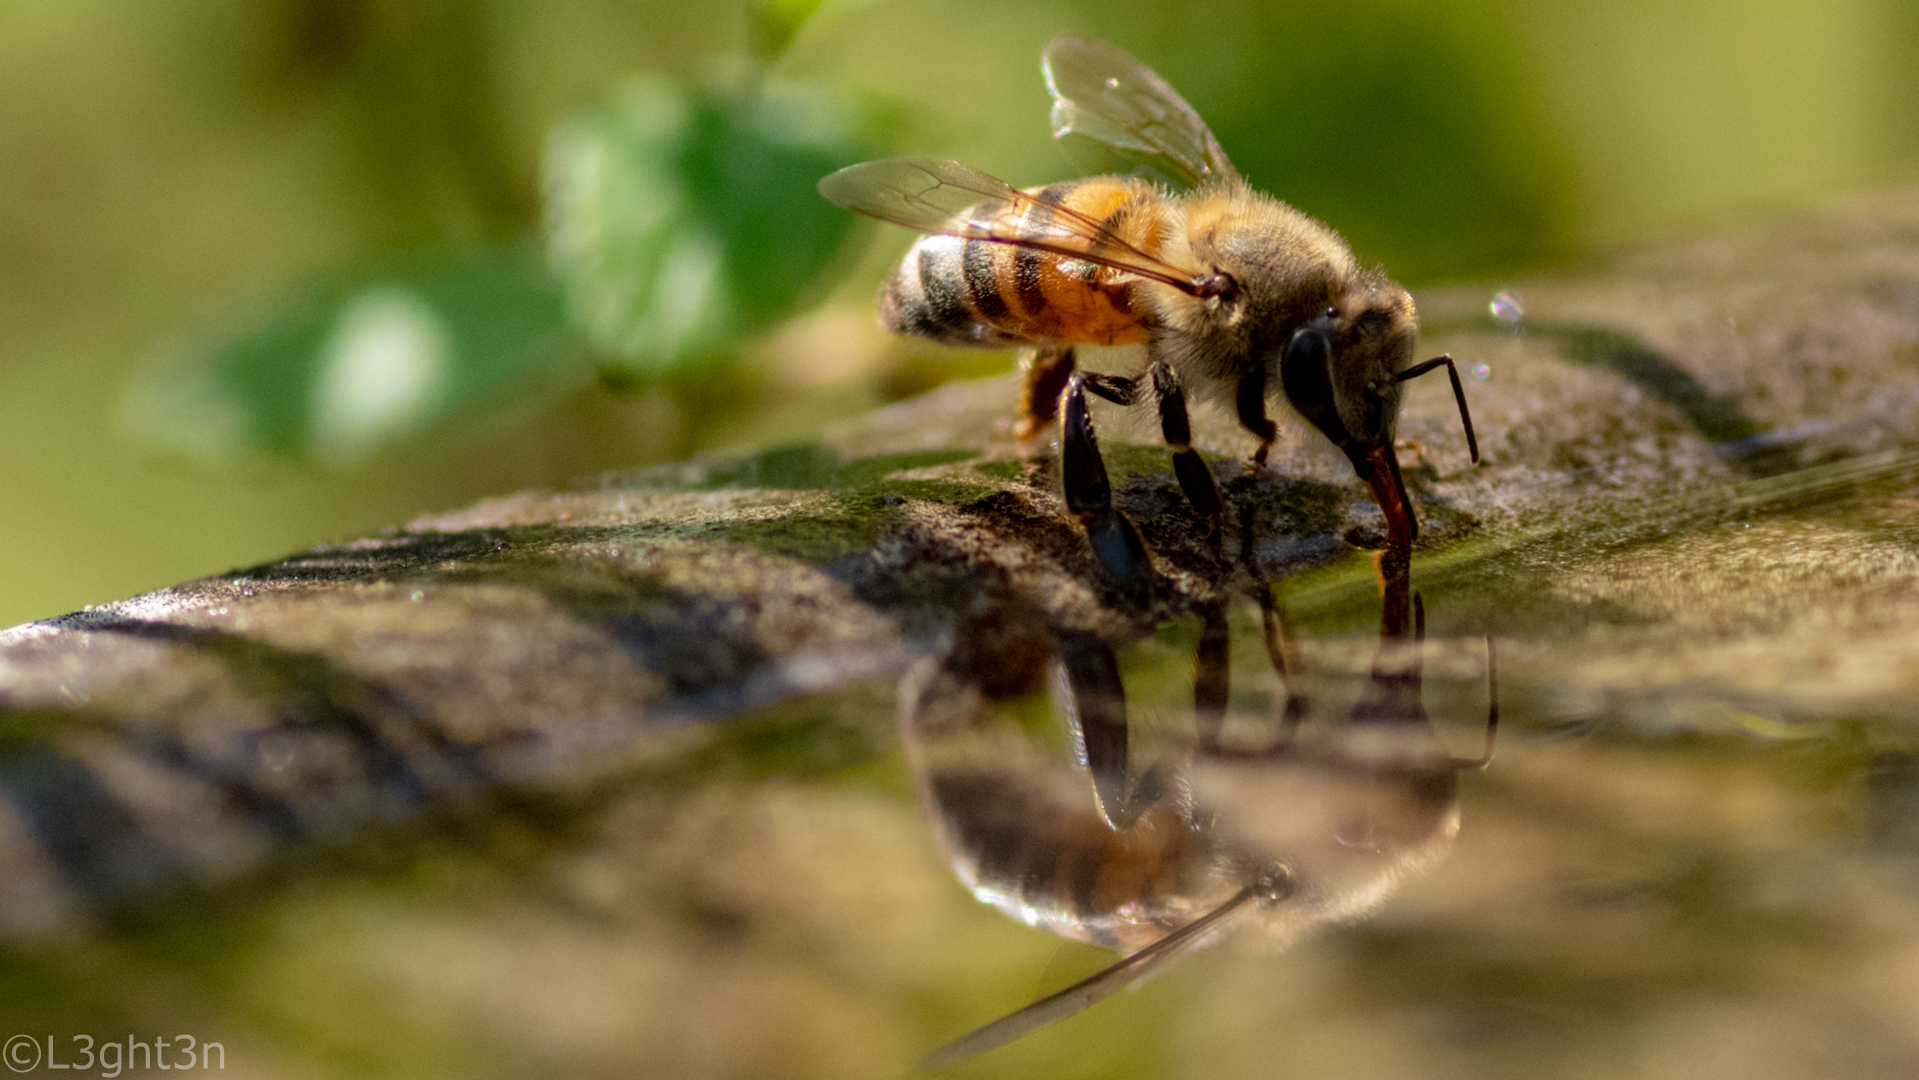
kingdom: Animalia
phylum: Arthropoda
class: Insecta
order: Hymenoptera
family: Apidae
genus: Apis
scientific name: Apis mellifera
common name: Honey bee
